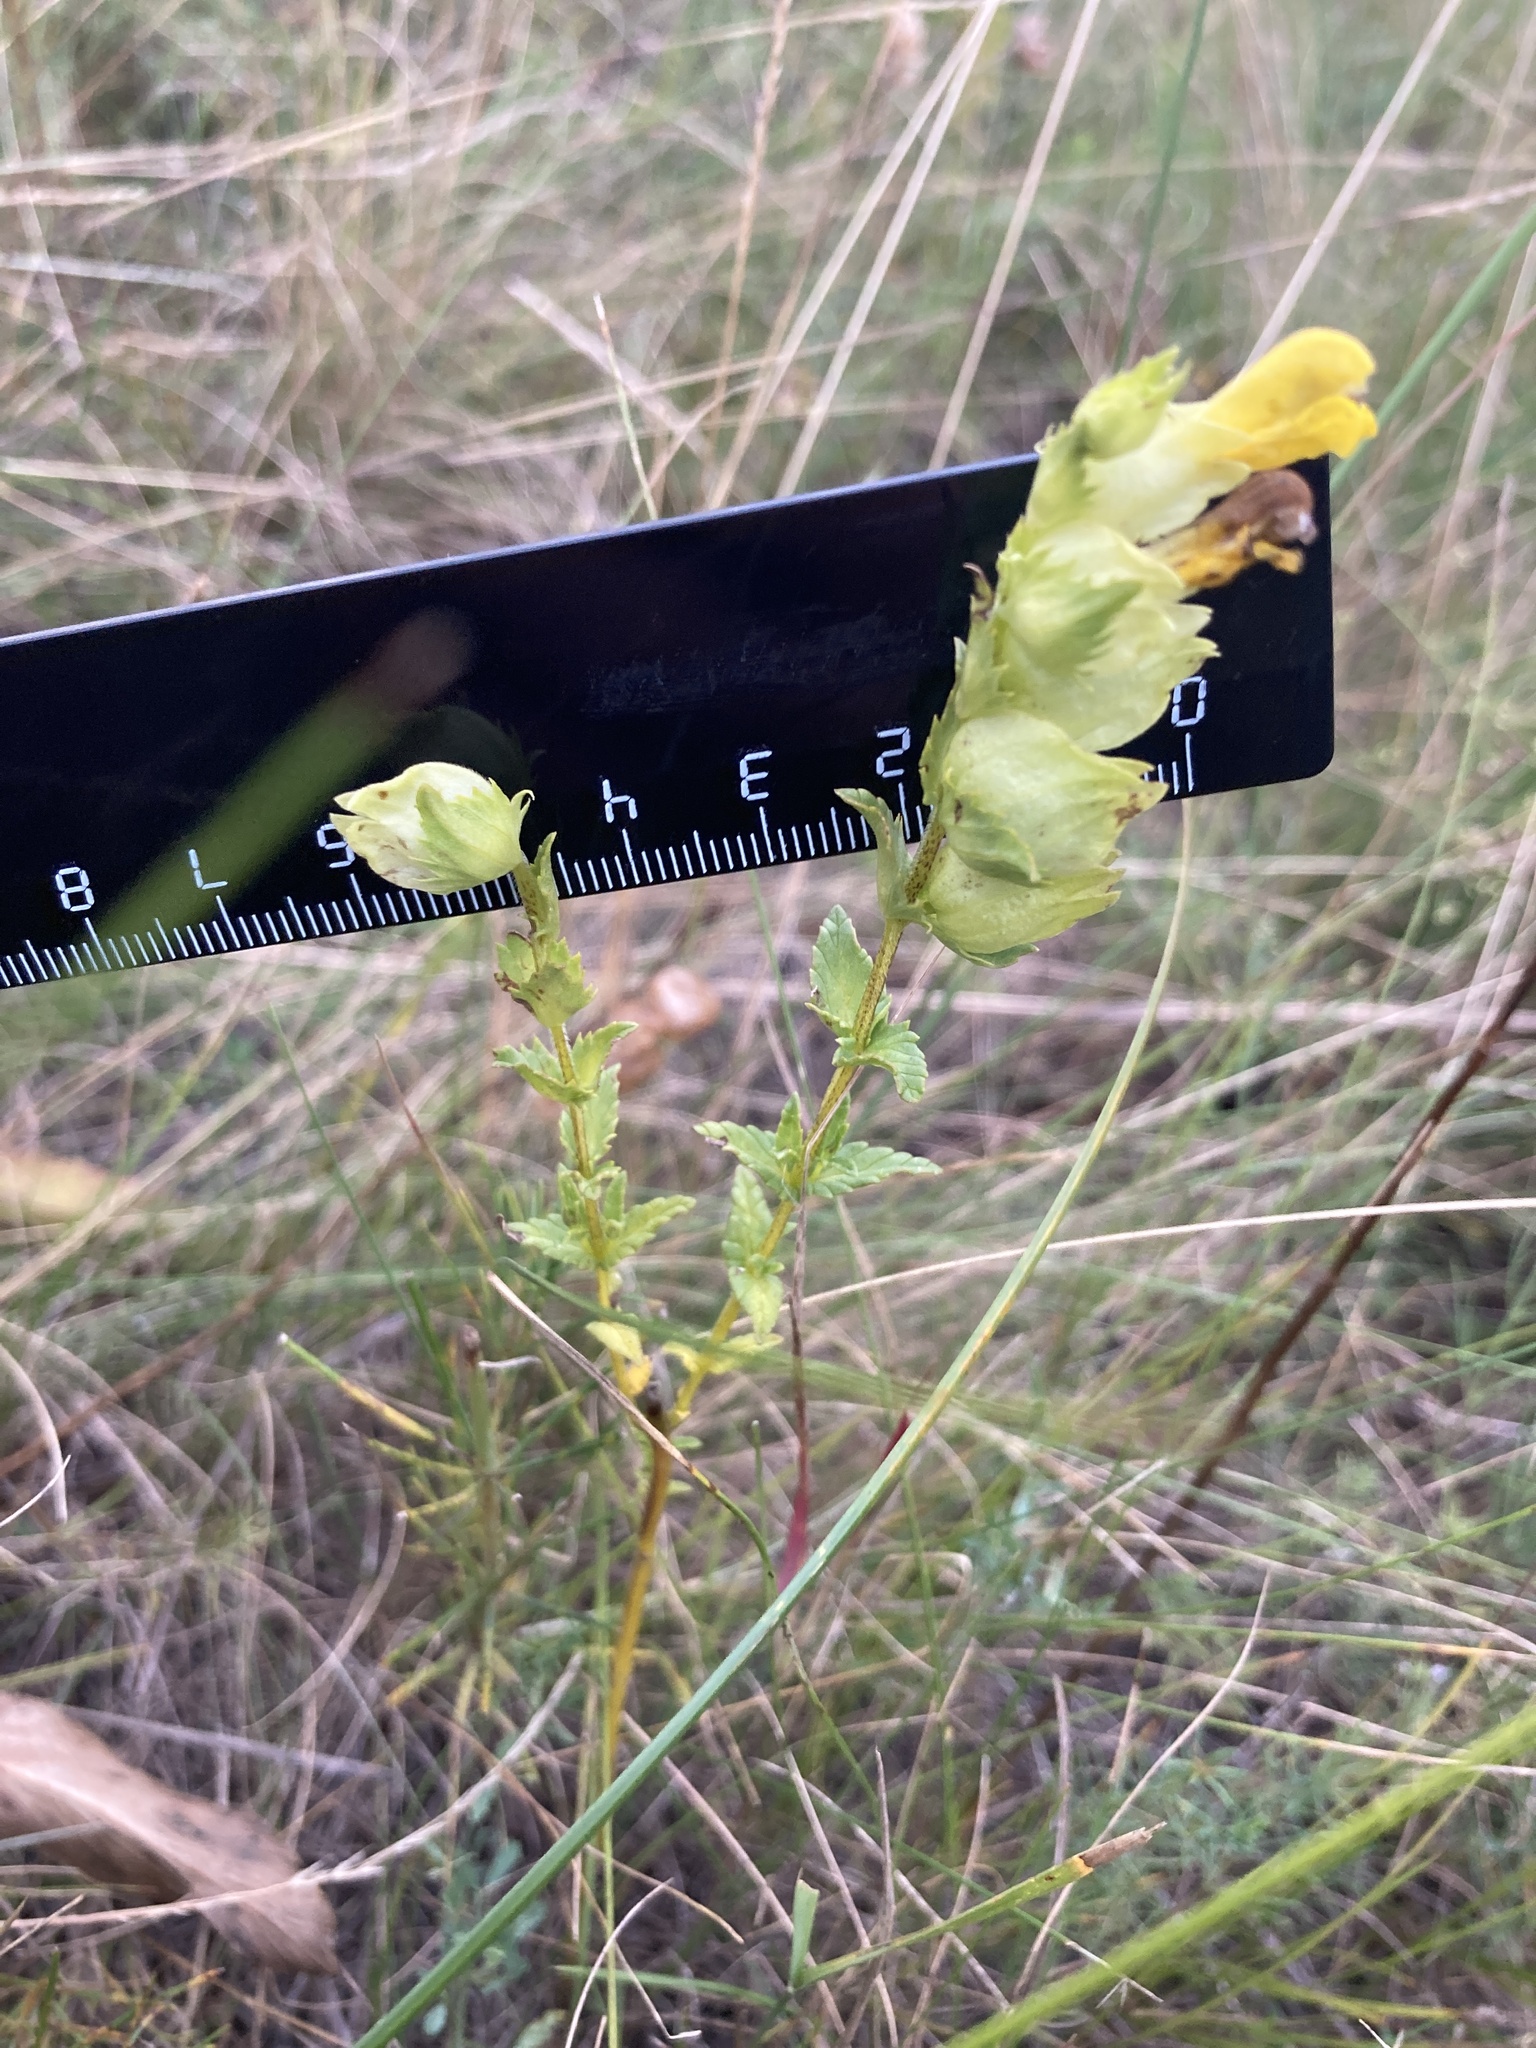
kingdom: Plantae
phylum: Tracheophyta
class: Magnoliopsida
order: Lamiales
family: Orobanchaceae
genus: Rhinanthus
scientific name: Rhinanthus serotinus
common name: Late-flowering yellow rattle
